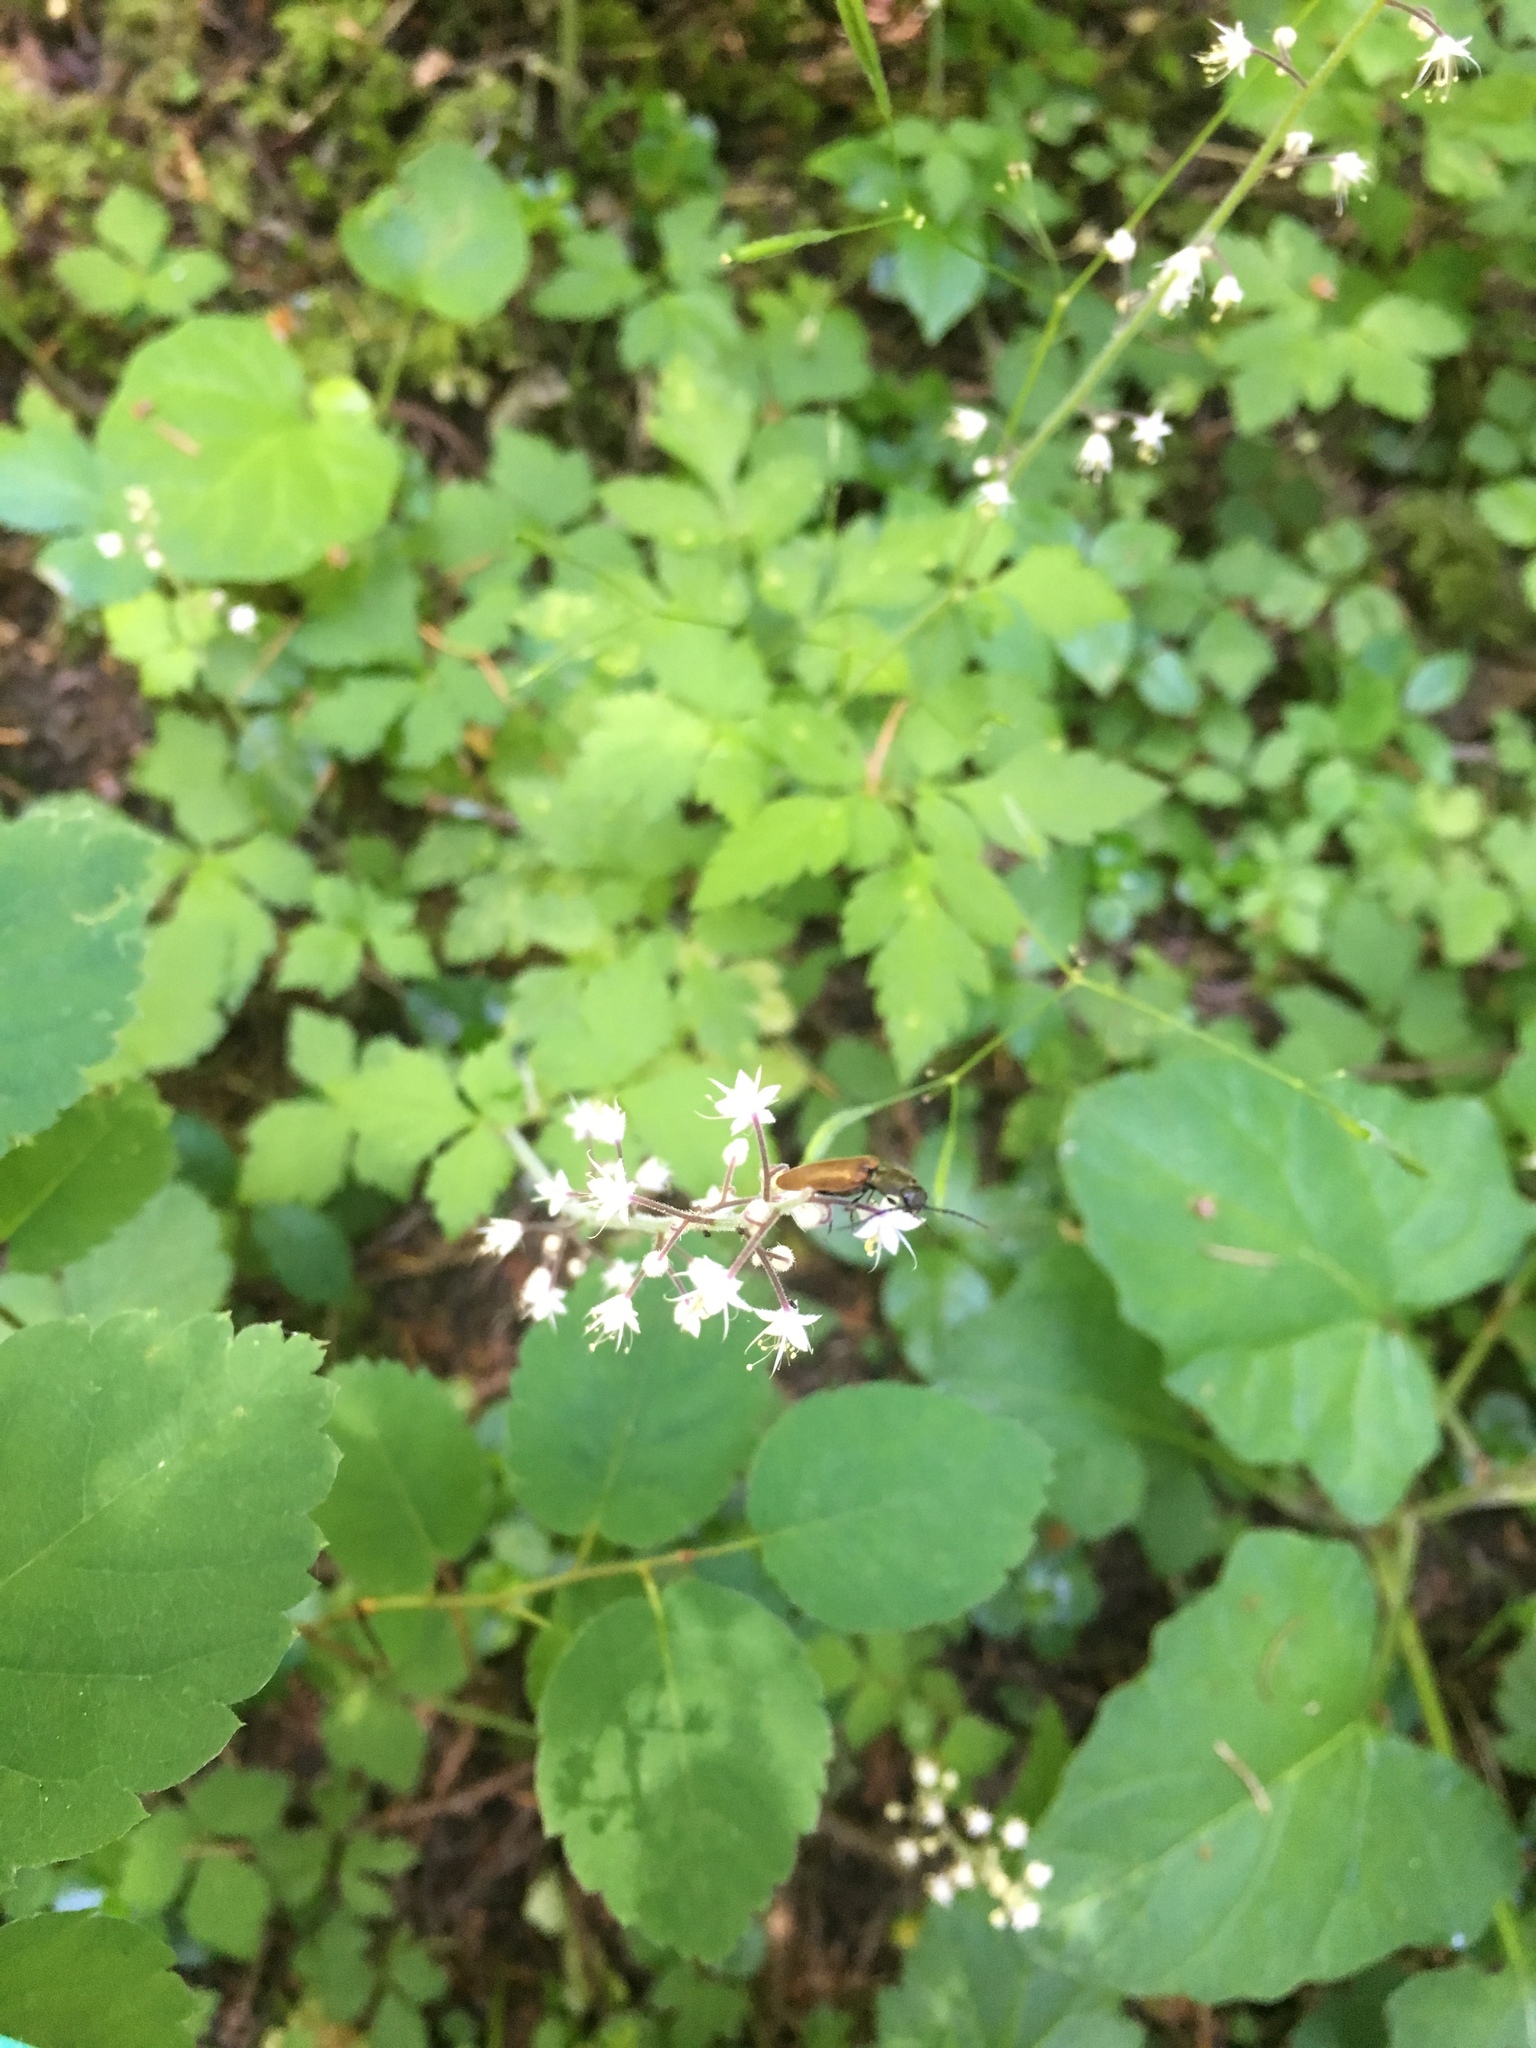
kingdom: Plantae
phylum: Tracheophyta
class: Magnoliopsida
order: Saxifragales
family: Saxifragaceae
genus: Tiarella
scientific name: Tiarella trifoliata
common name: Sugar-scoop
